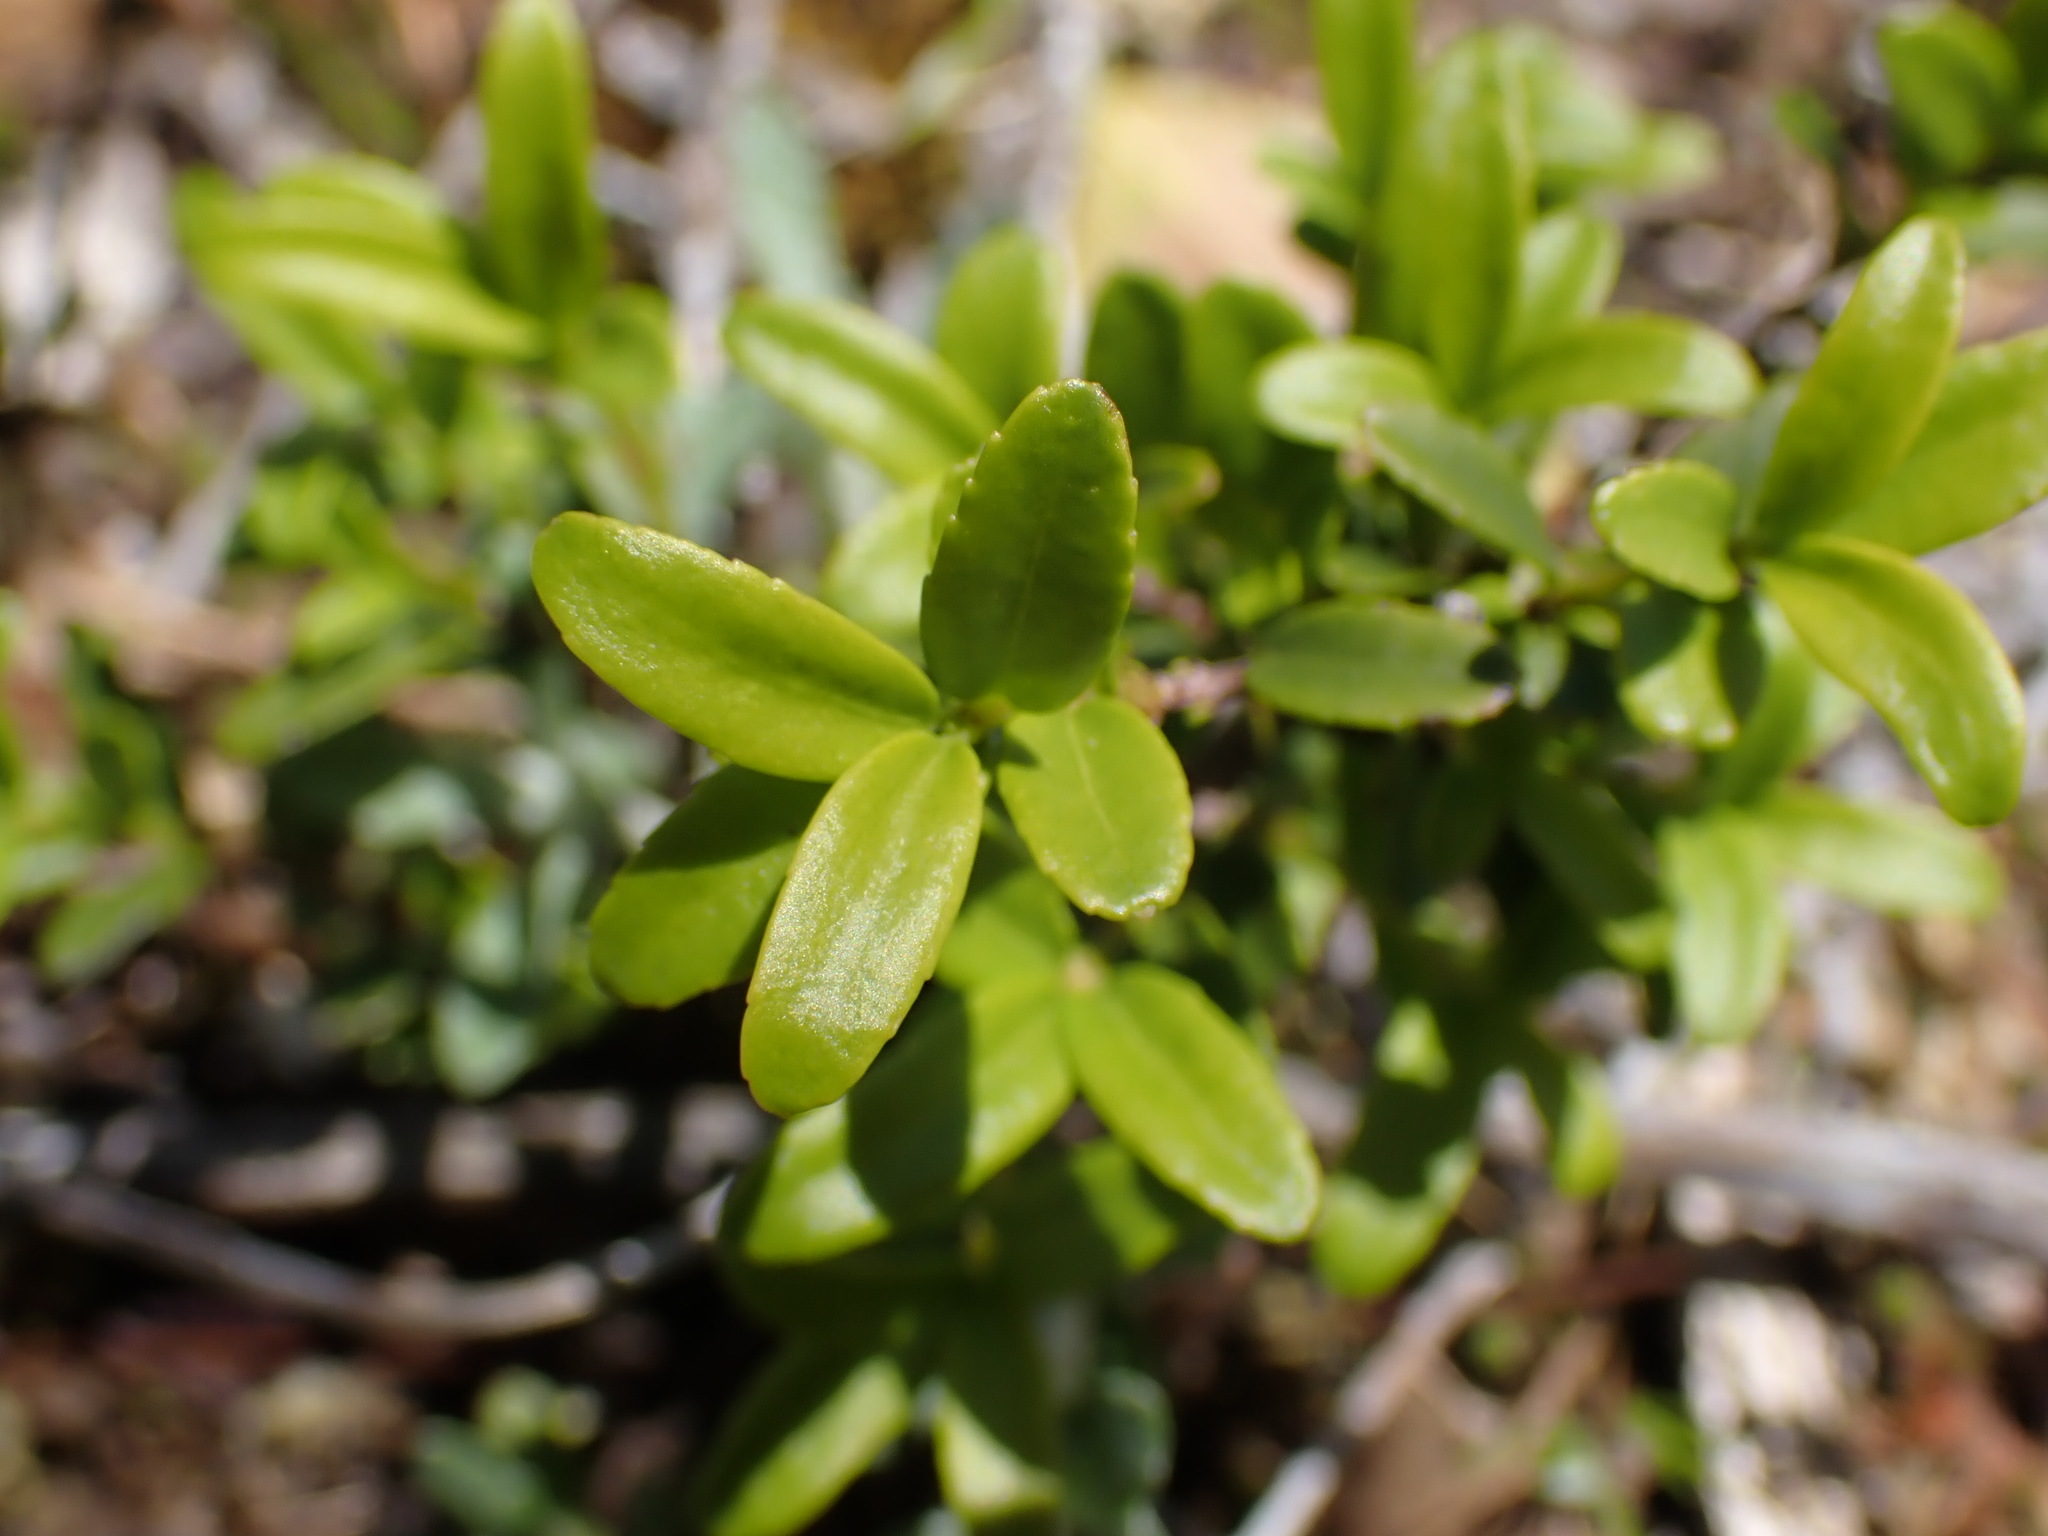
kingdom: Plantae
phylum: Tracheophyta
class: Magnoliopsida
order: Celastrales
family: Celastraceae
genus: Paxistima
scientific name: Paxistima myrsinites
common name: Mountain-lover
